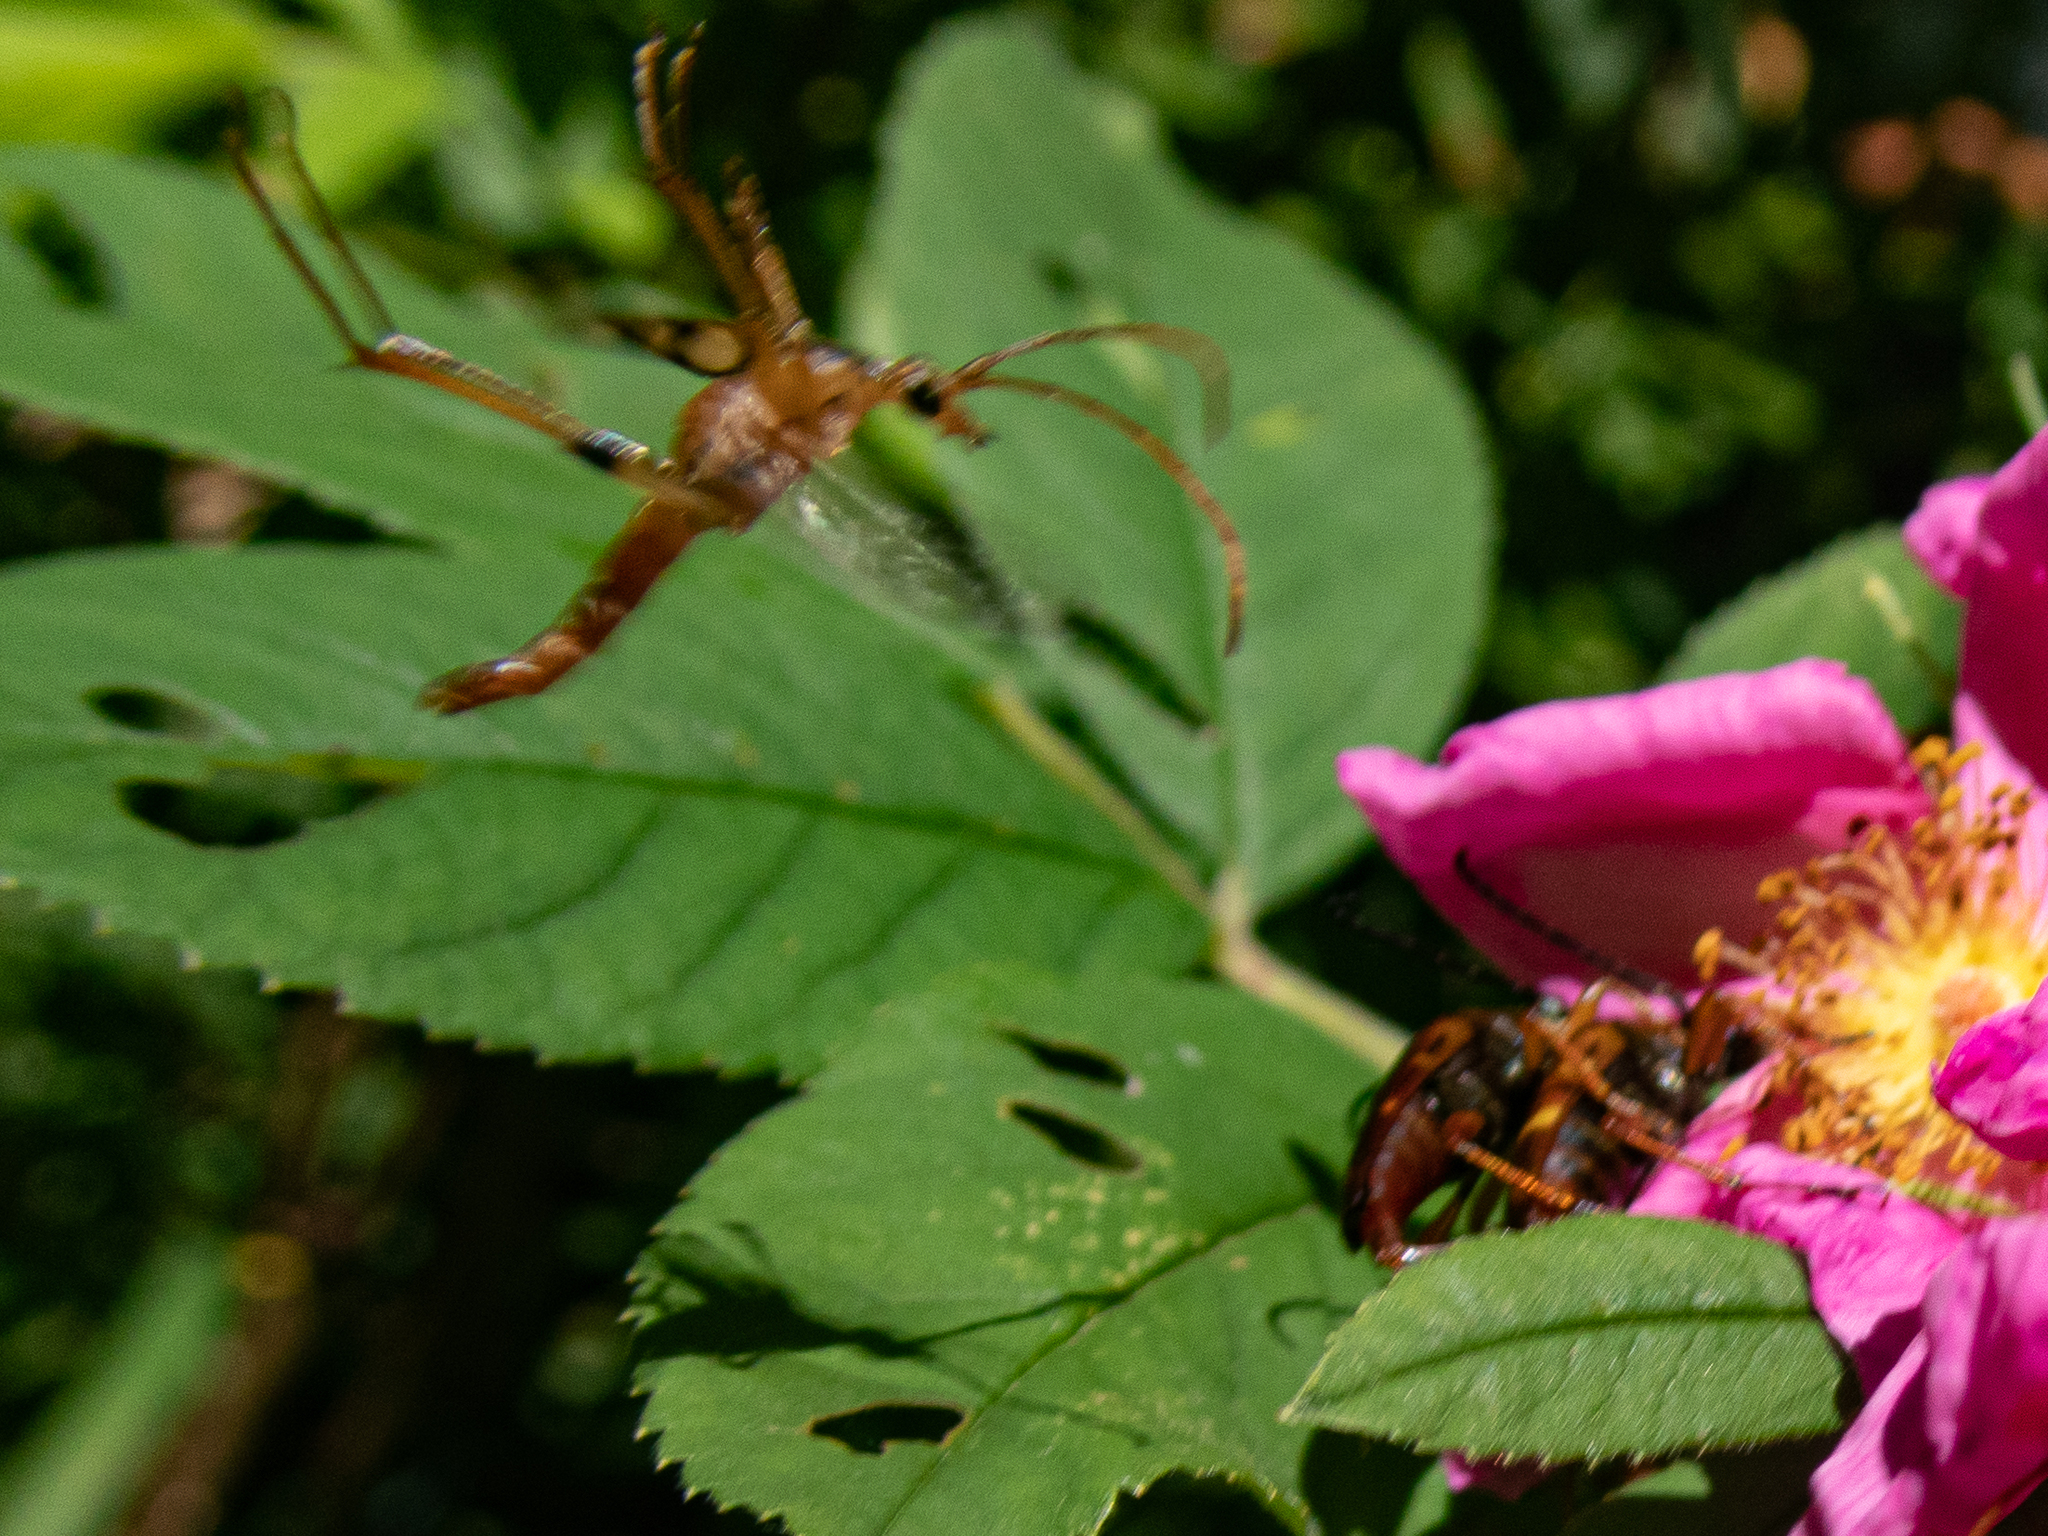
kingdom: Animalia
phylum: Arthropoda
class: Insecta
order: Coleoptera
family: Cerambycidae
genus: Strangalia
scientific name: Strangalia luteicornis
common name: Yellow-horned flower longhorn beetle
